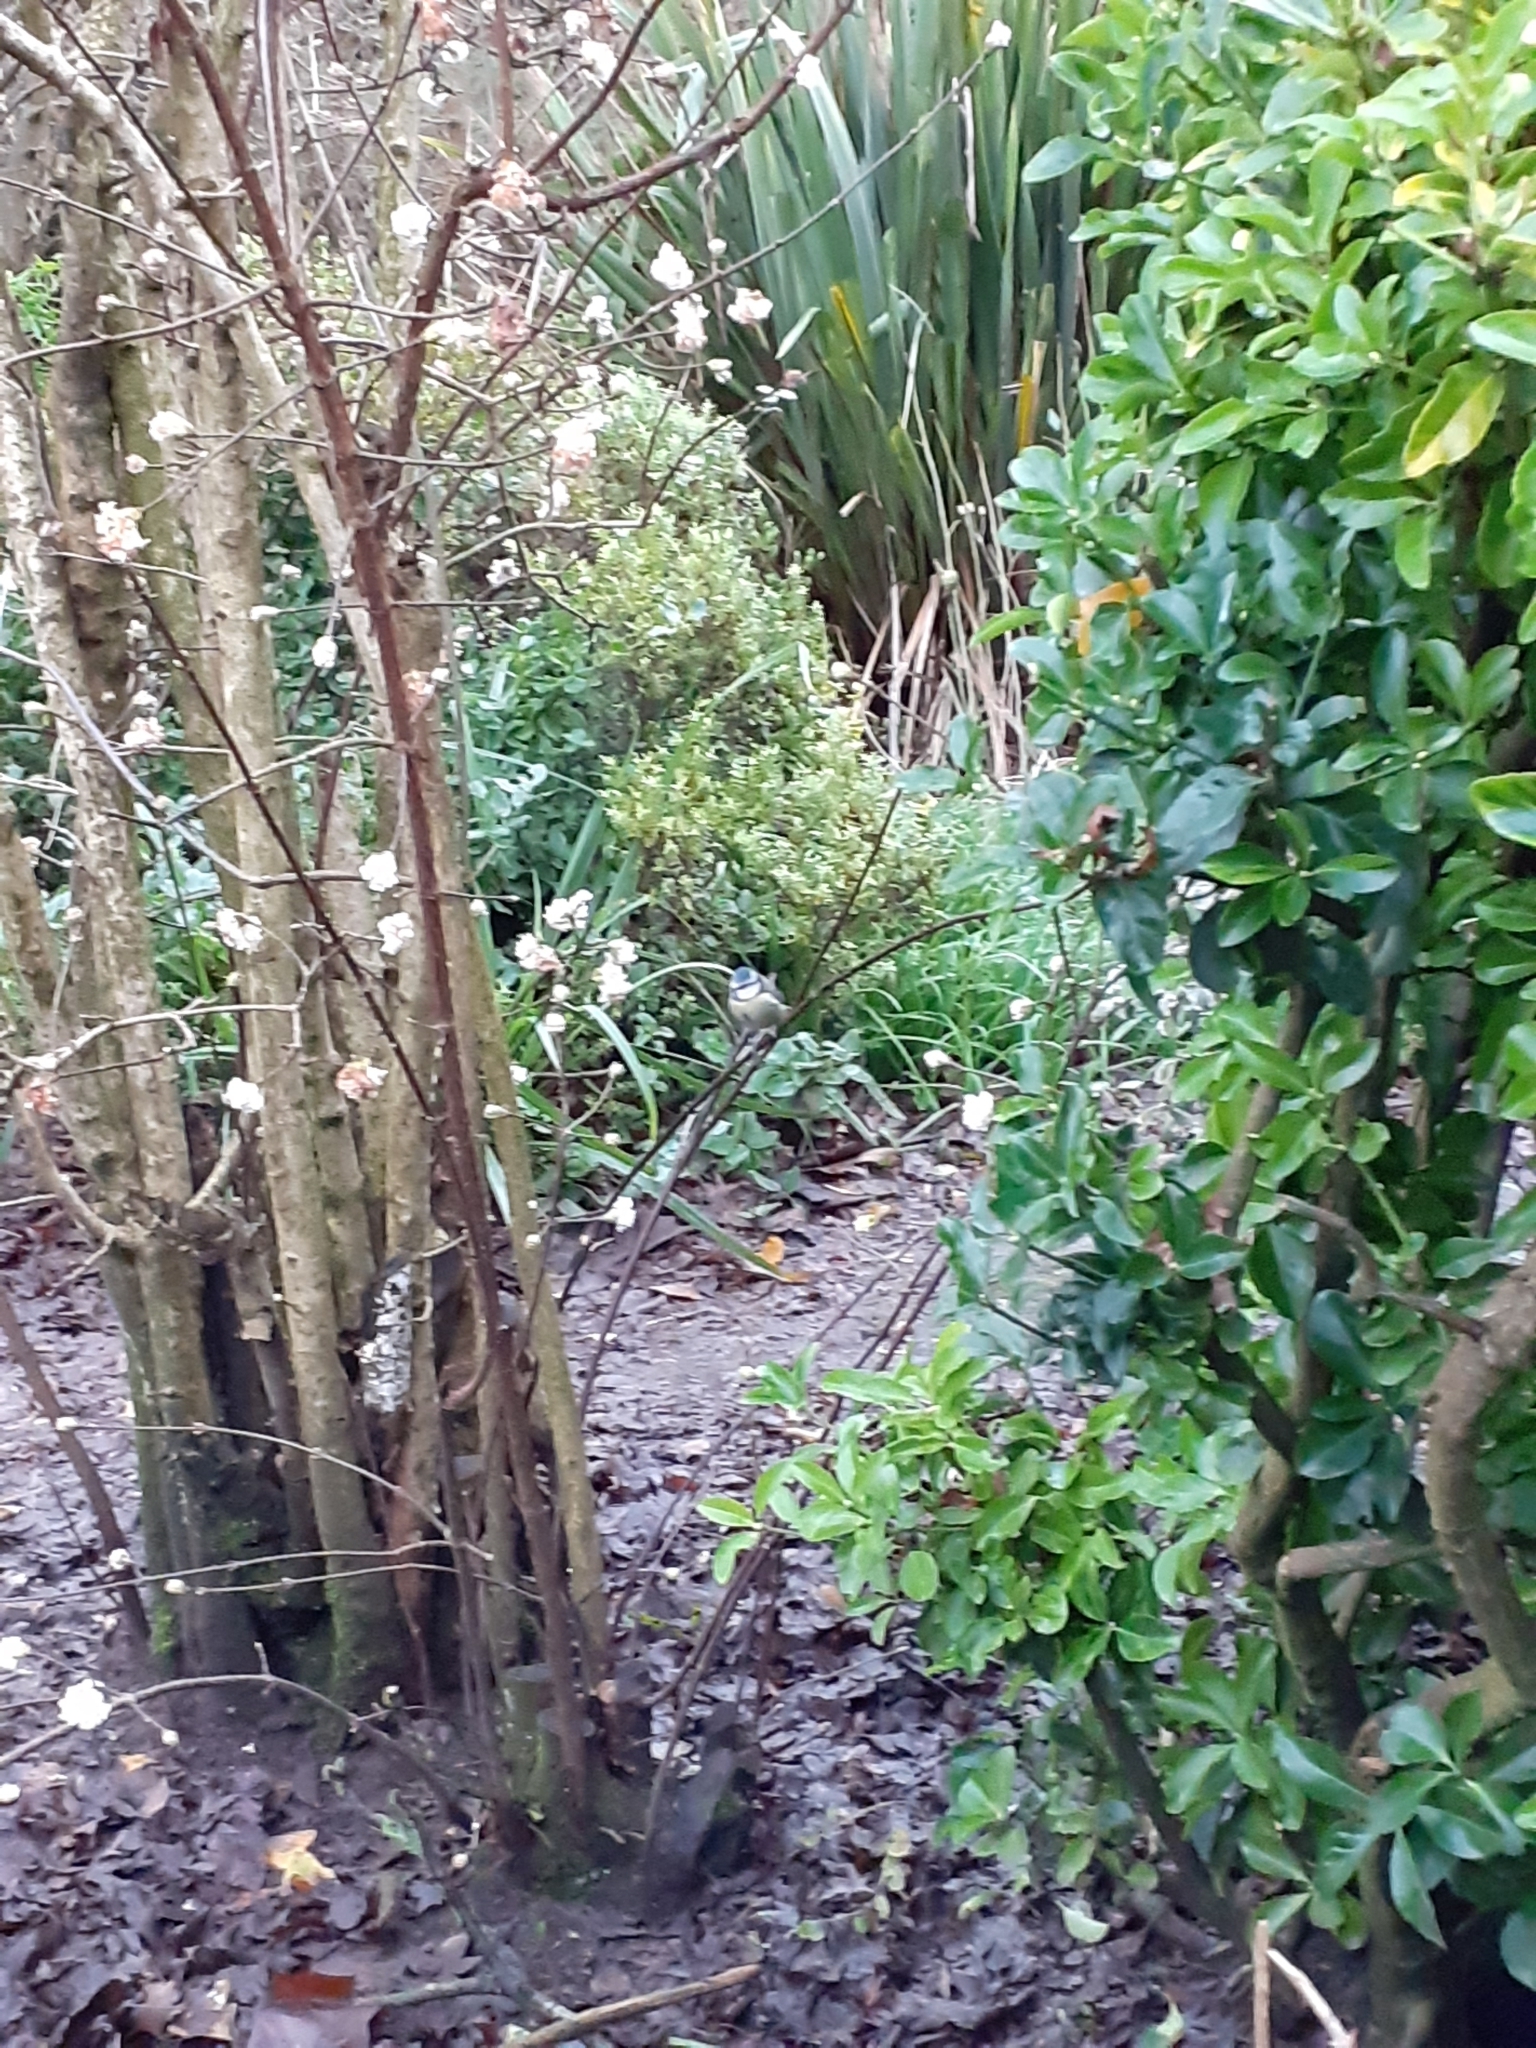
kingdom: Animalia
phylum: Chordata
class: Aves
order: Passeriformes
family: Paridae
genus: Cyanistes
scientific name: Cyanistes caeruleus
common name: Eurasian blue tit
